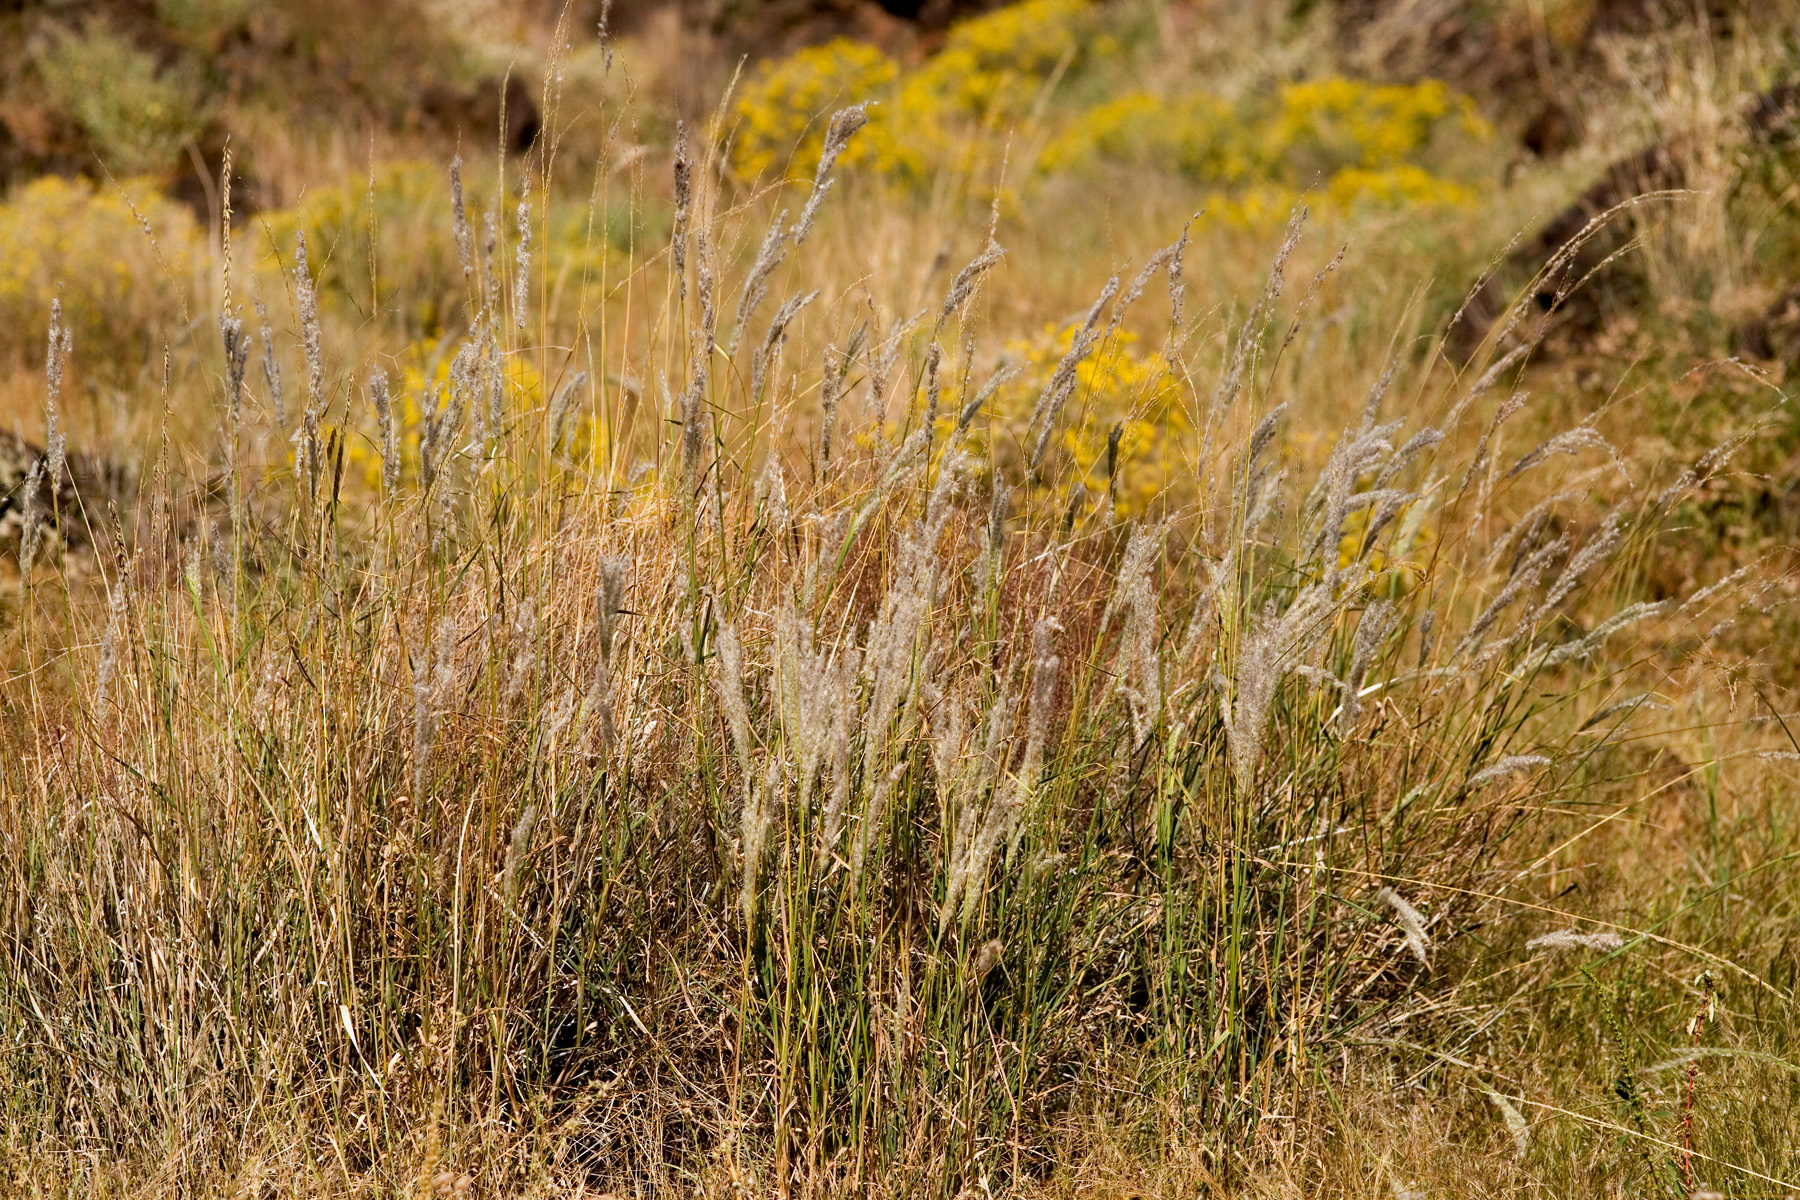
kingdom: Plantae
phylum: Tracheophyta
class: Liliopsida
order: Poales
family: Poaceae
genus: Digitaria
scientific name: Digitaria californica
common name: Arizona cottontop
